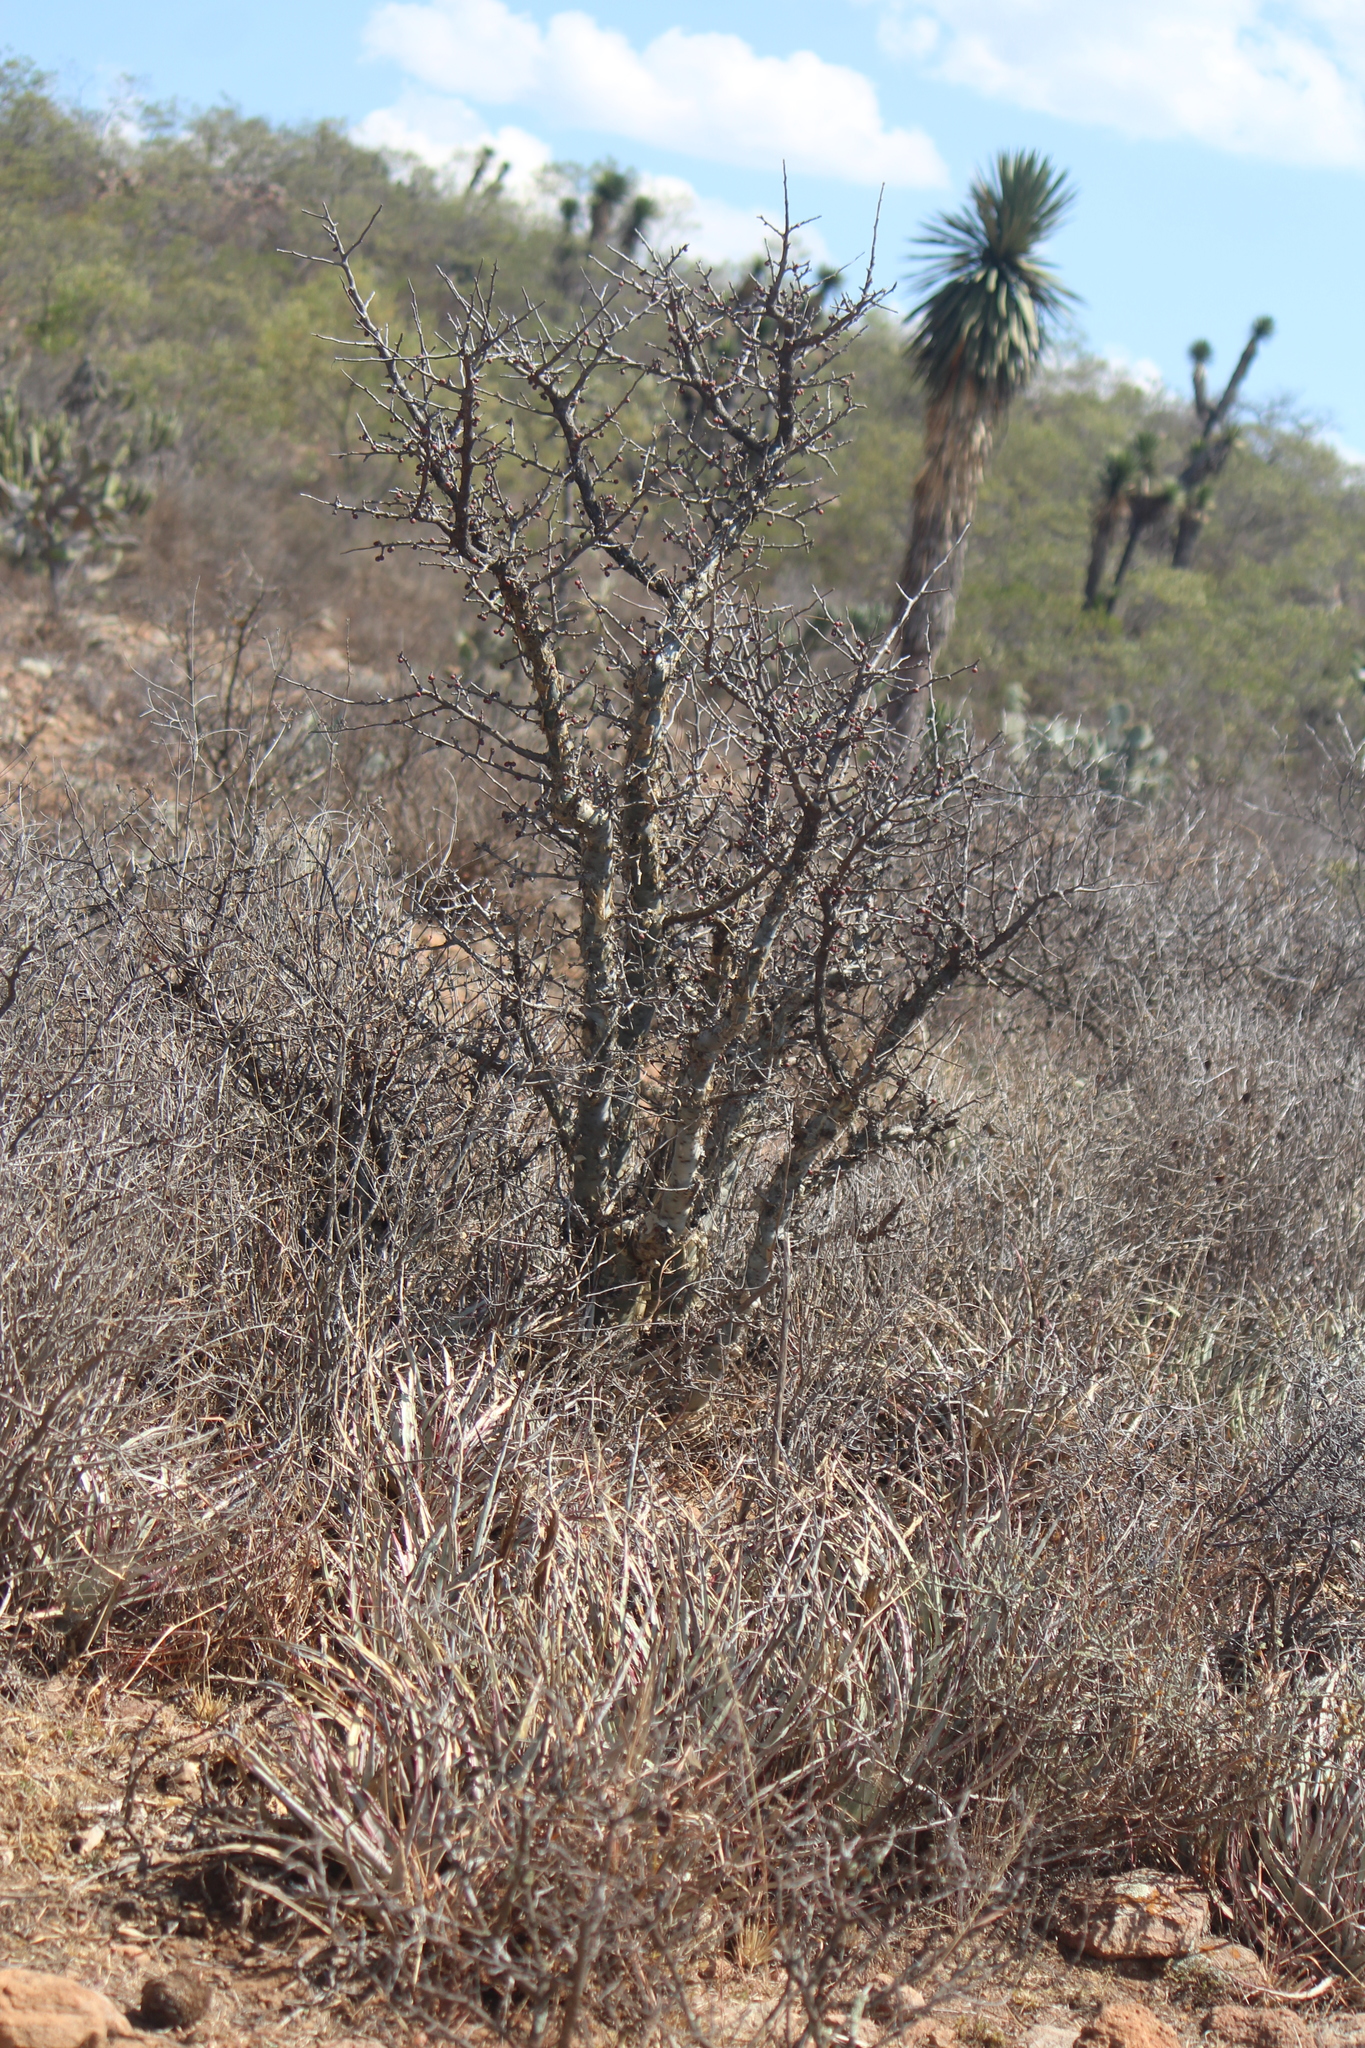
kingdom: Plantae
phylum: Tracheophyta
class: Magnoliopsida
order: Sapindales
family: Burseraceae
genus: Bursera
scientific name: Bursera fagaroides
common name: Elephant tree
